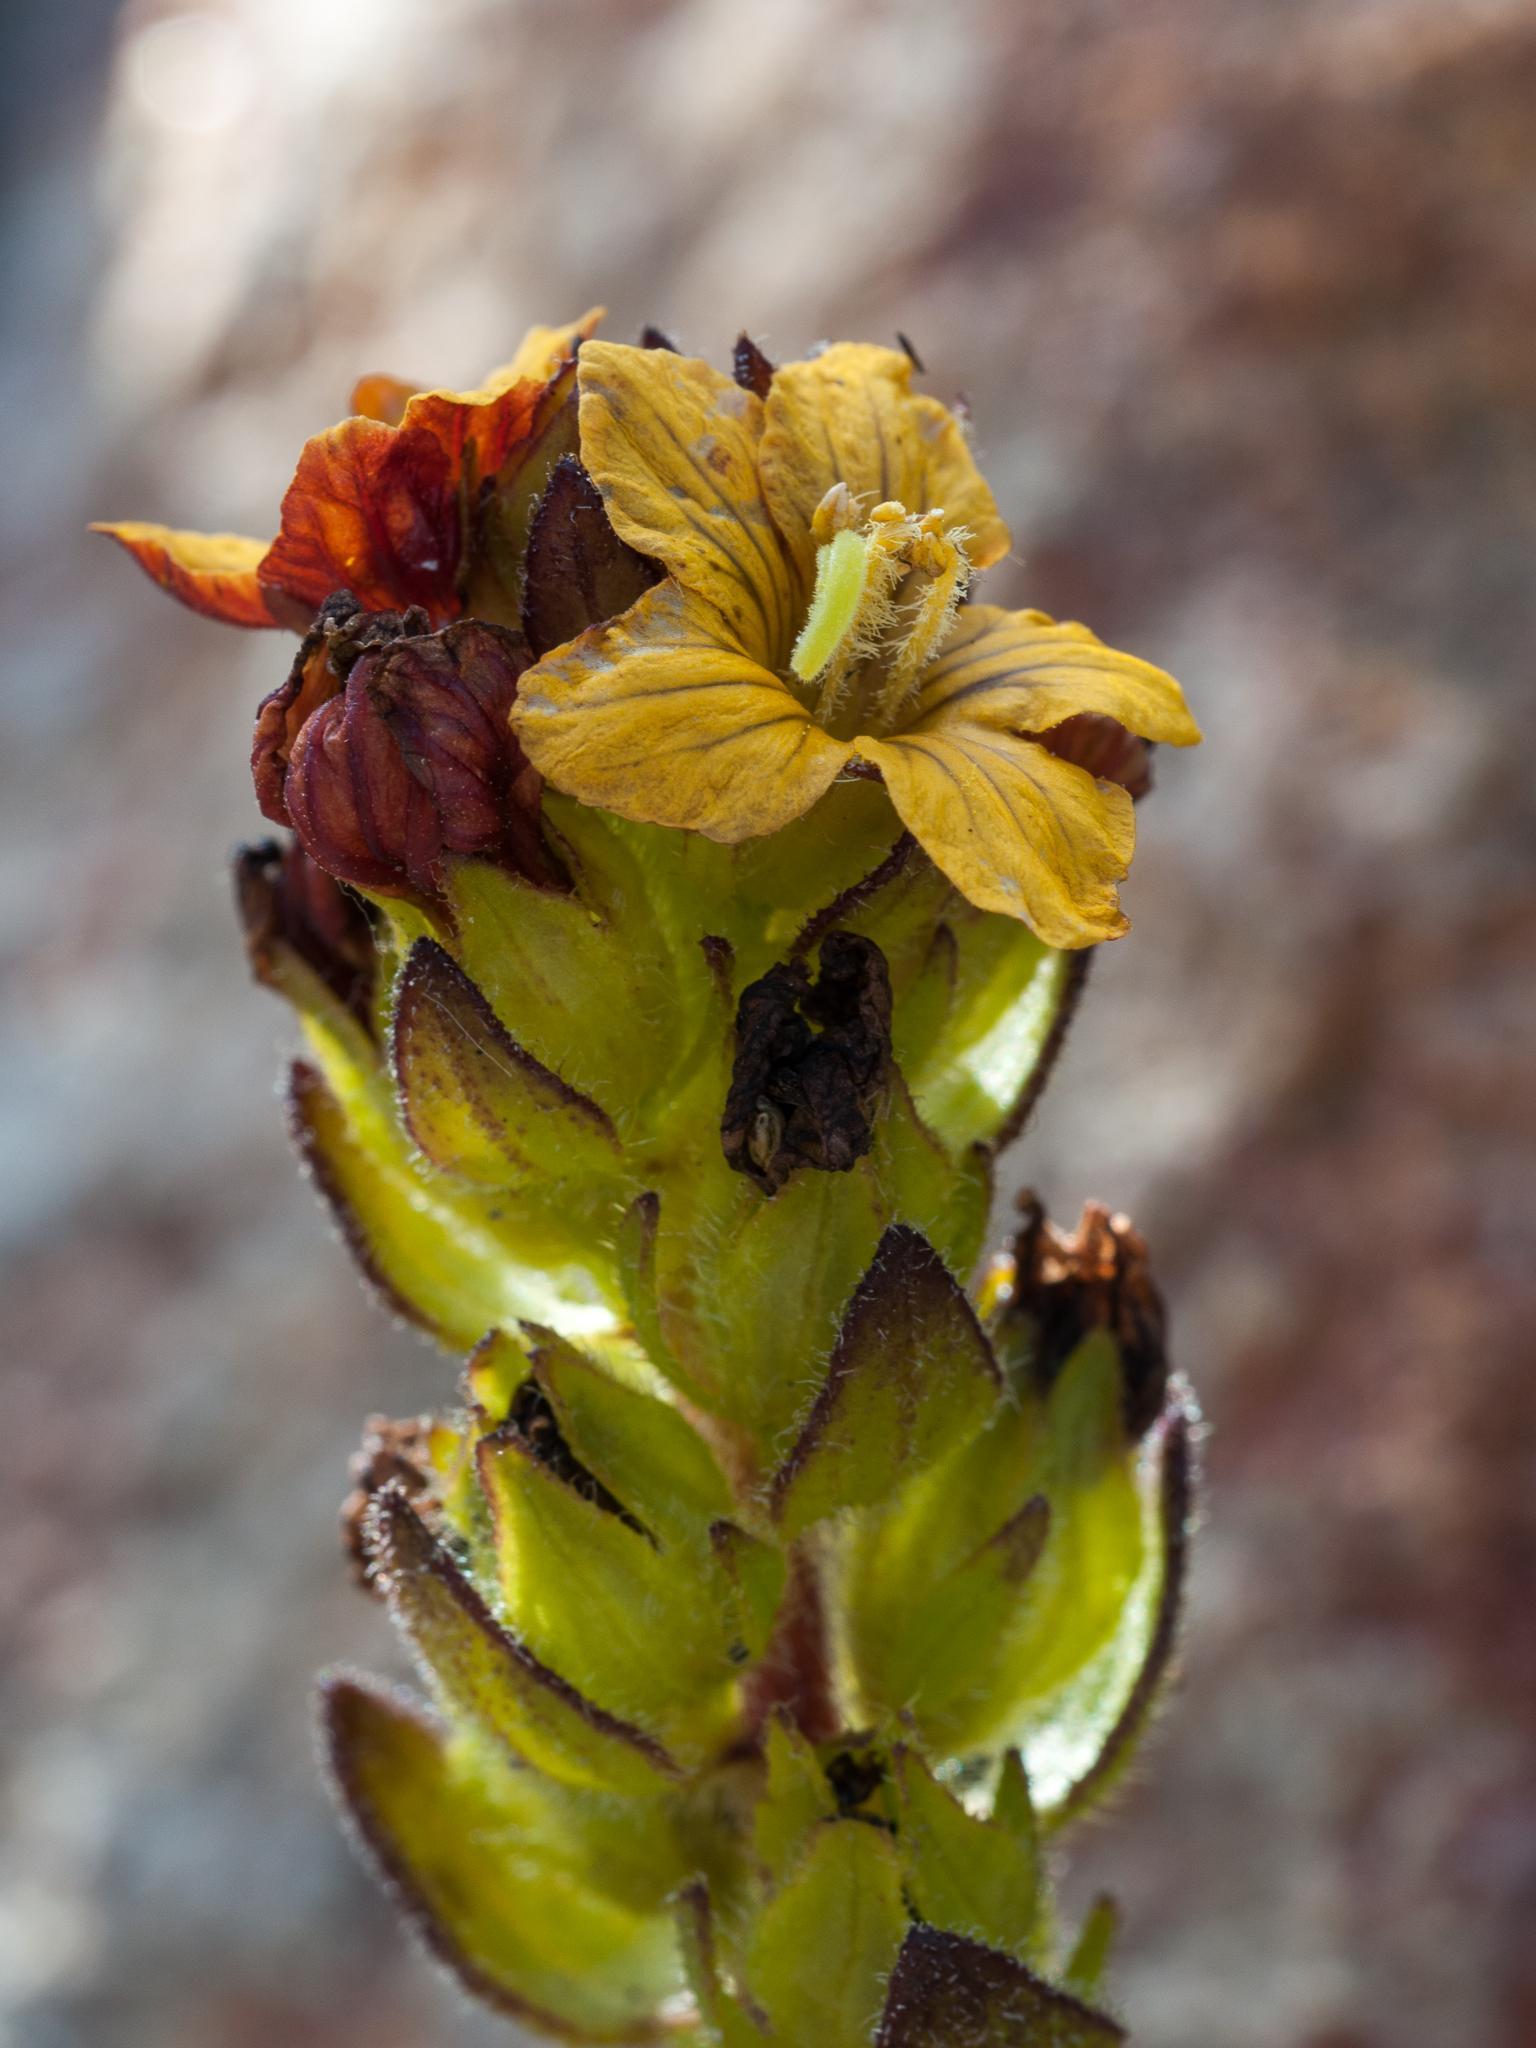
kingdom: Plantae
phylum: Tracheophyta
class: Magnoliopsida
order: Lamiales
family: Orobanchaceae
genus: Alectra
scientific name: Alectra sessiliflora
